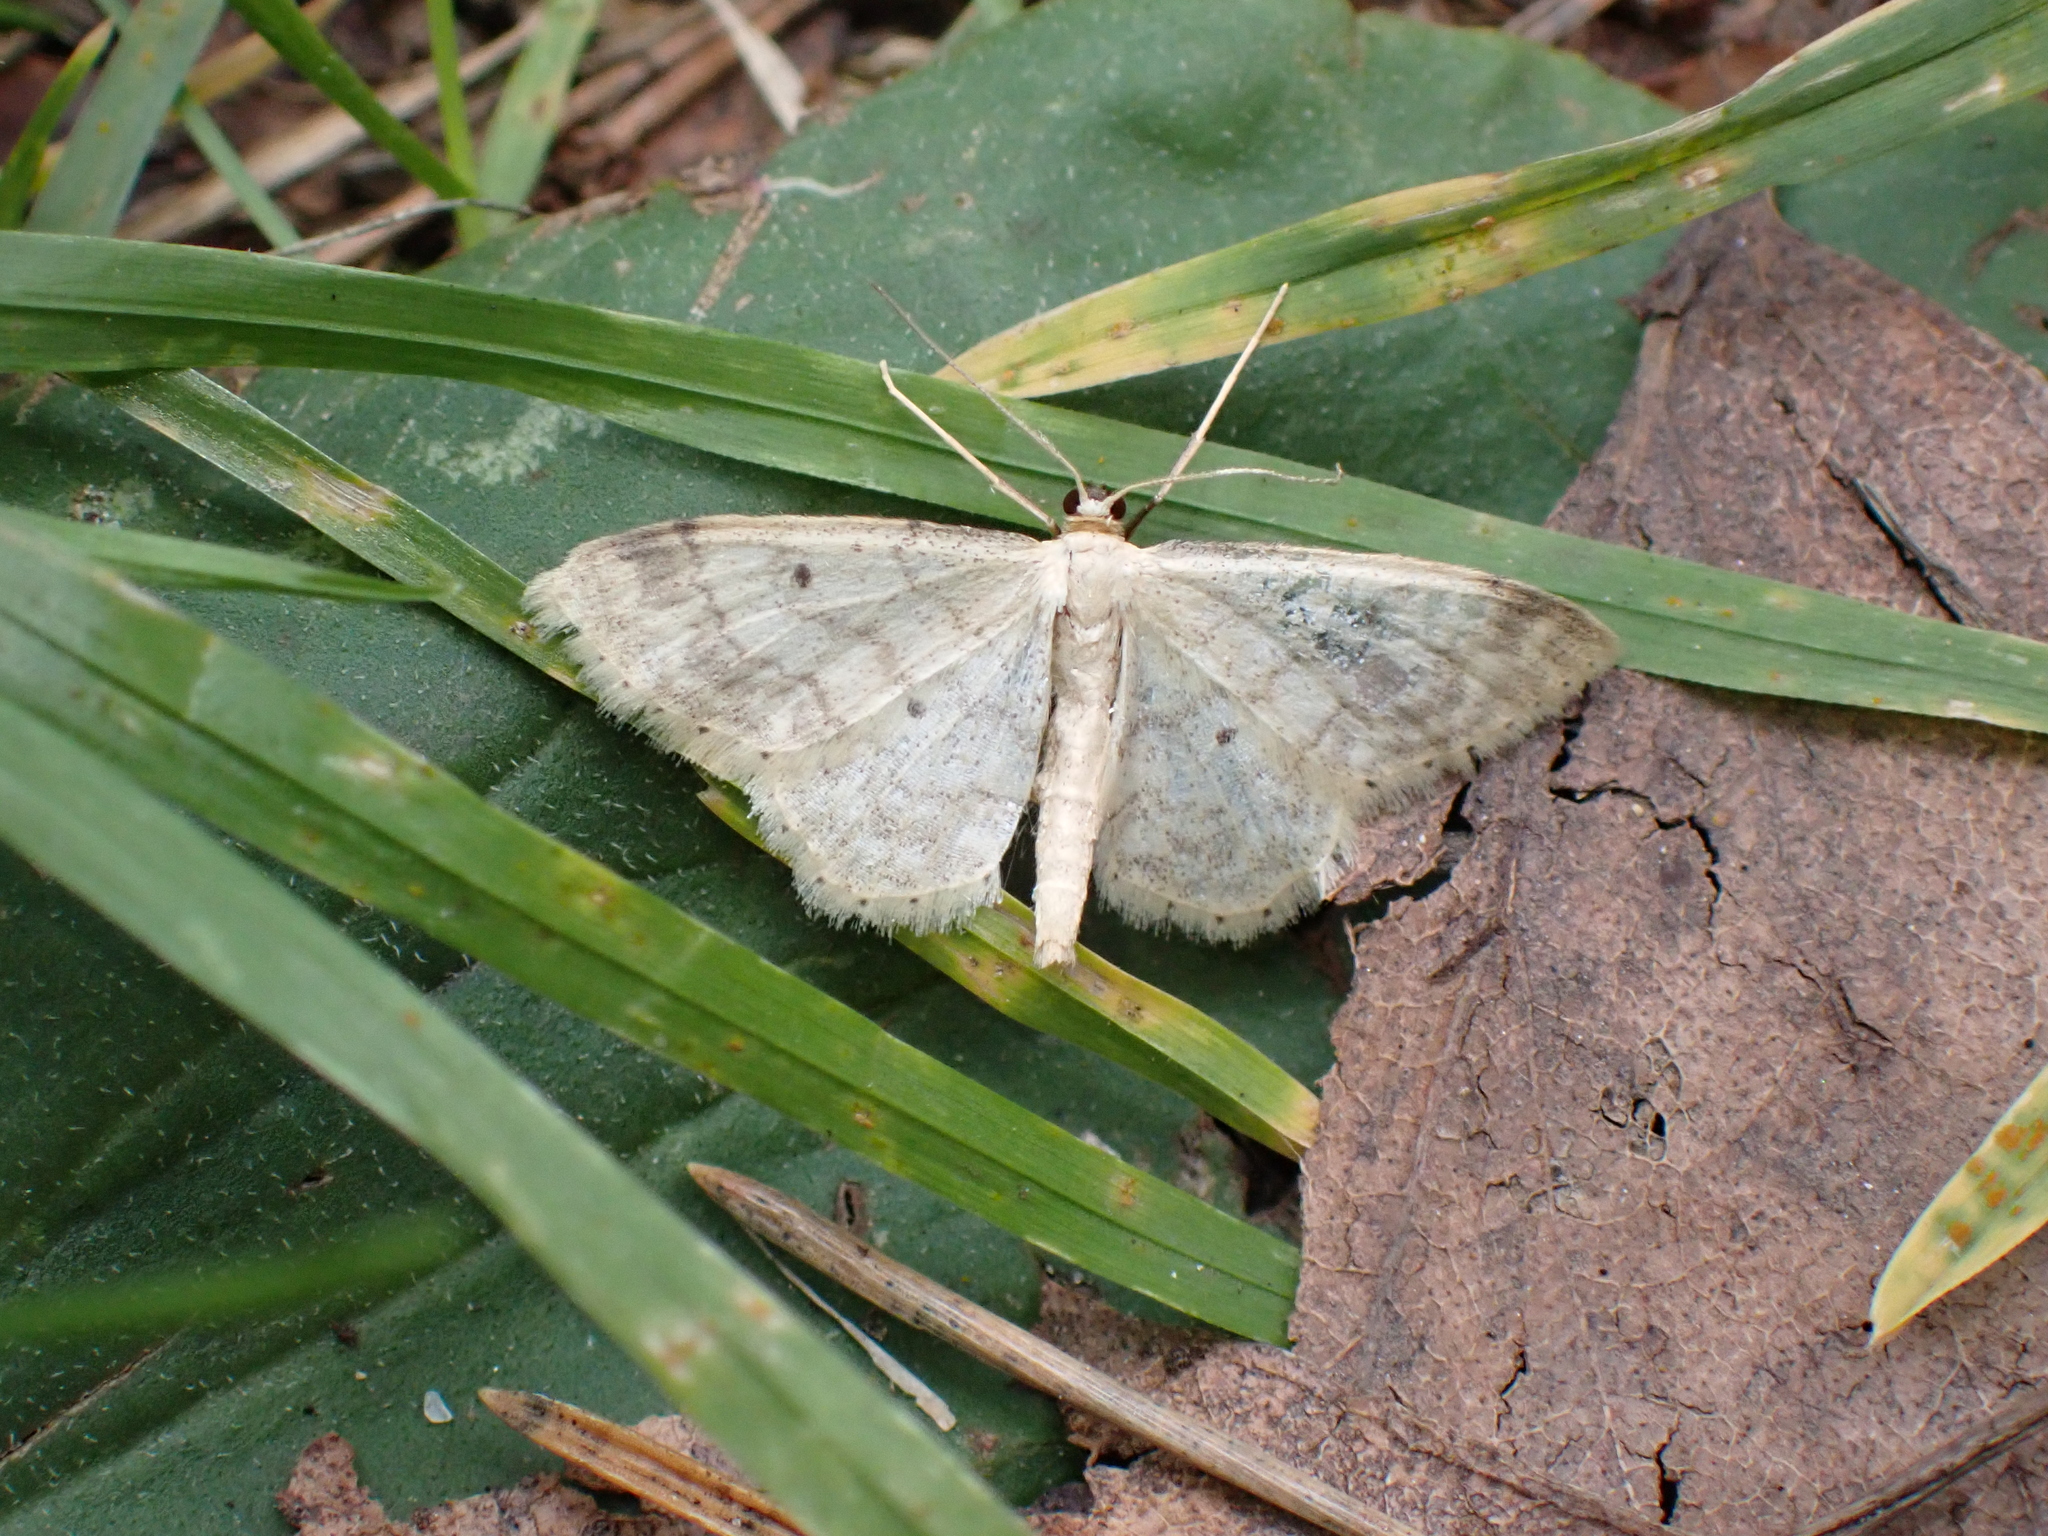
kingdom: Animalia
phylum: Arthropoda
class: Insecta
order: Lepidoptera
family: Geometridae
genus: Idaea
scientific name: Idaea biselata
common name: Small fan-footed wave
